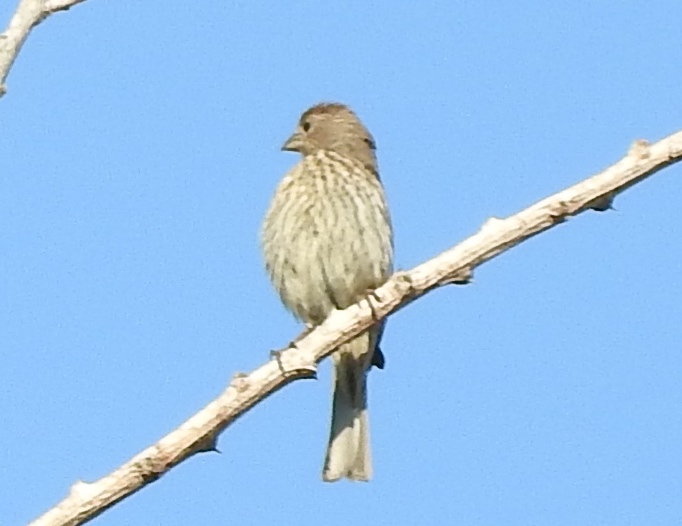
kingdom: Animalia
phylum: Chordata
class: Aves
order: Passeriformes
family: Fringillidae
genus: Haemorhous
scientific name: Haemorhous mexicanus
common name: House finch
